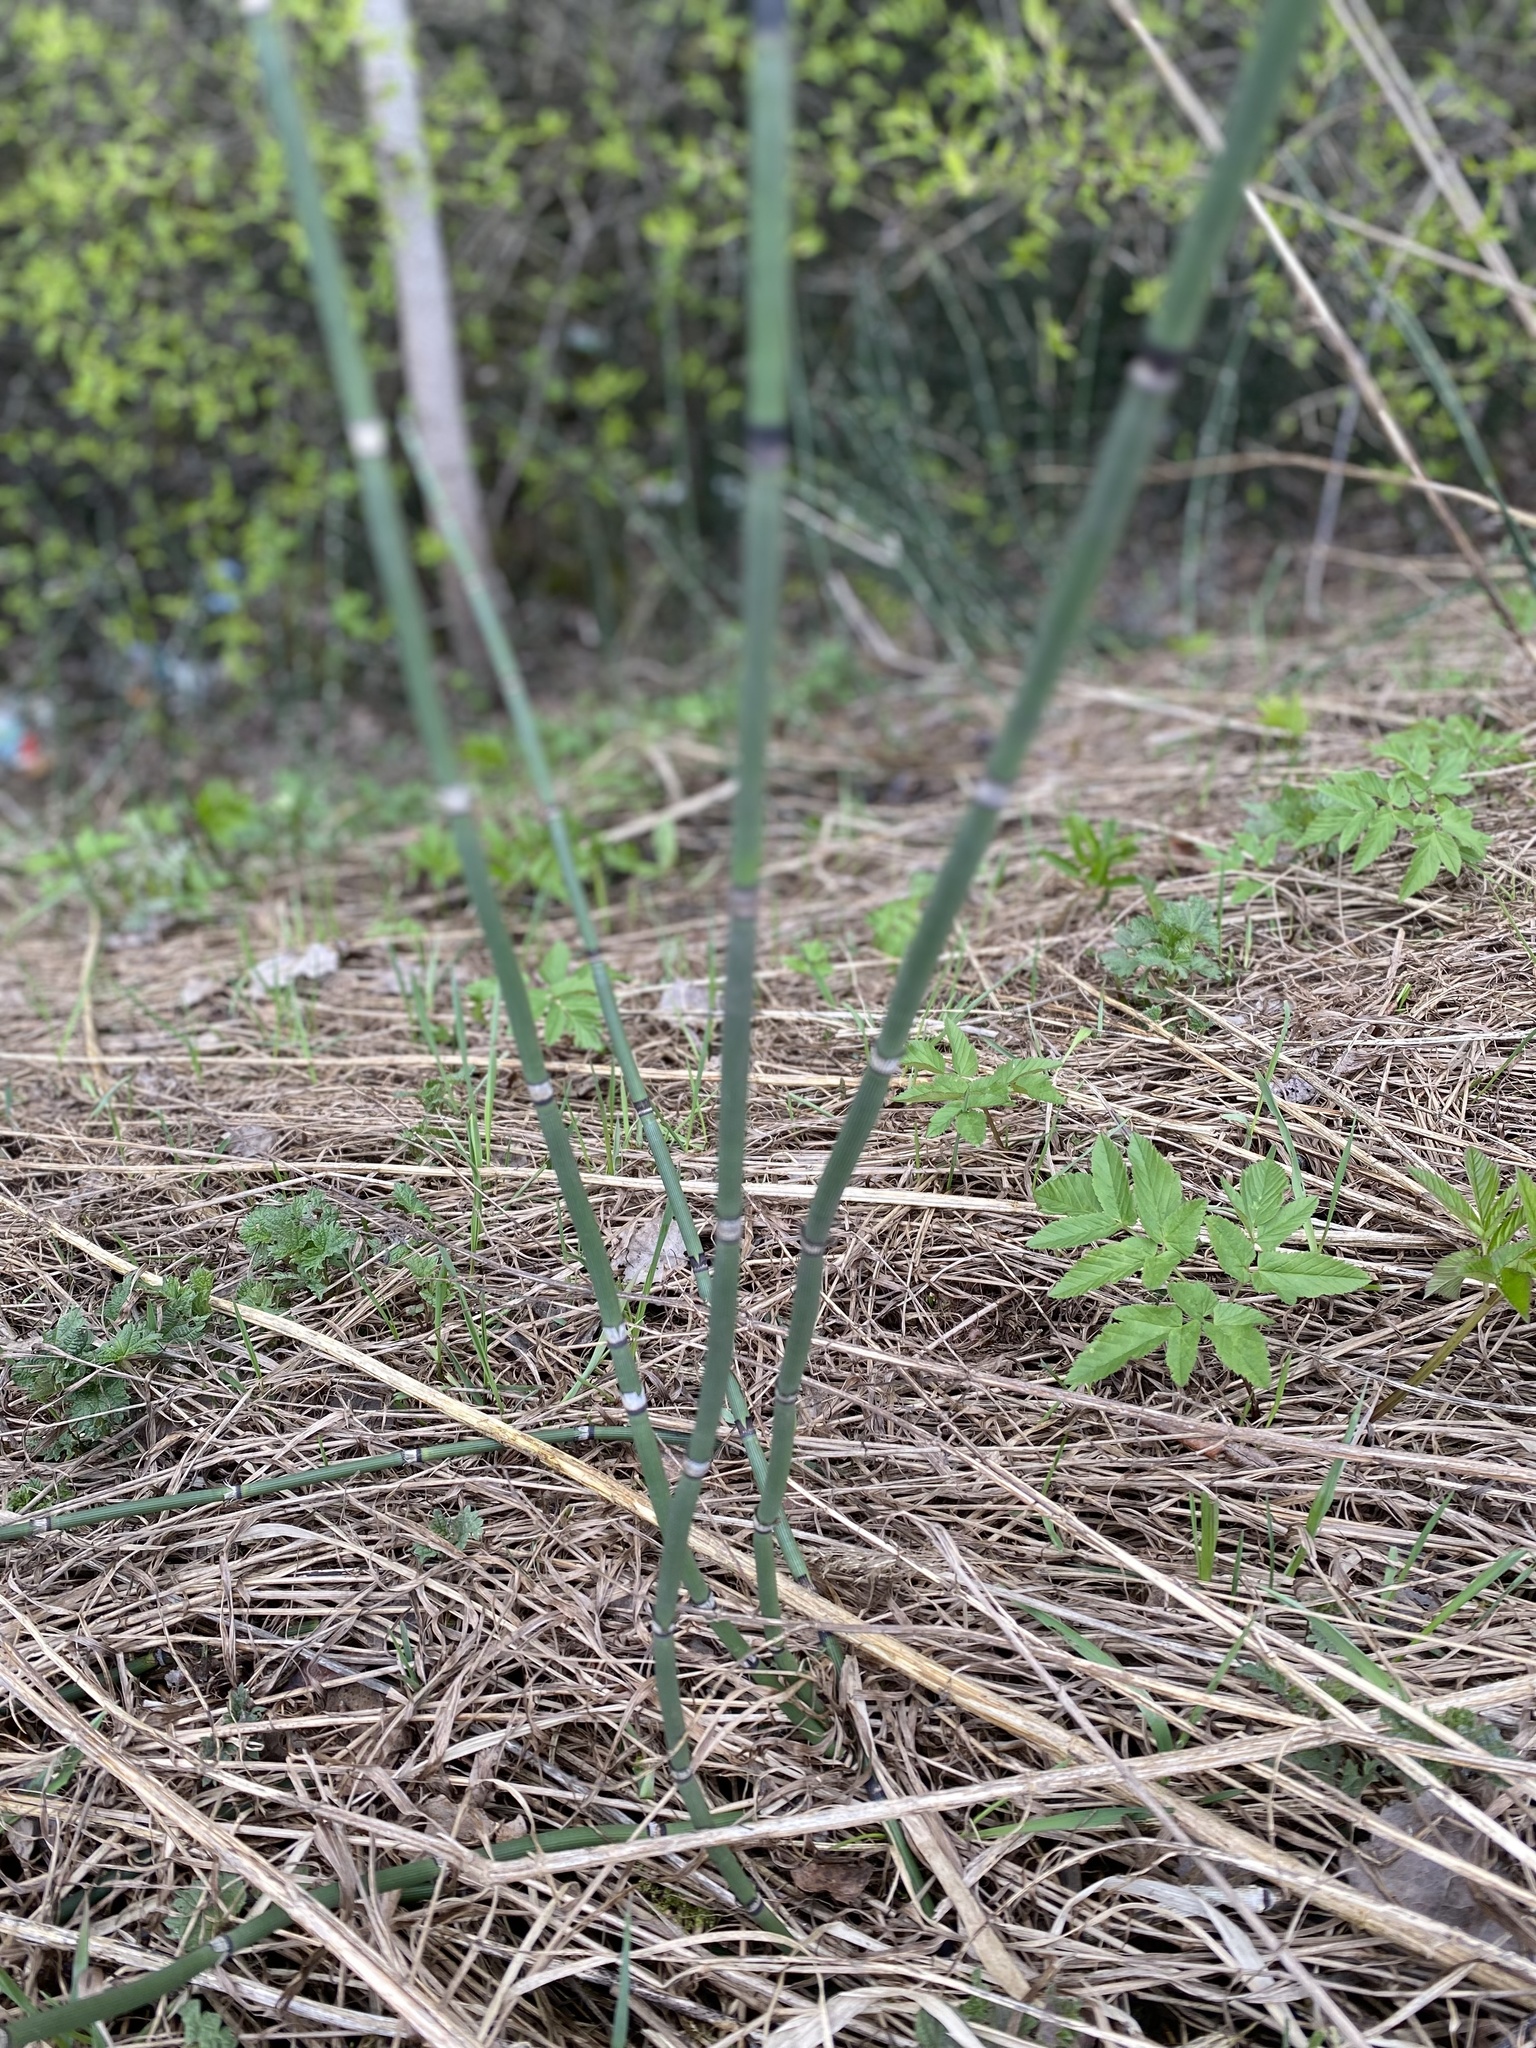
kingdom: Plantae
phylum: Tracheophyta
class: Polypodiopsida
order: Equisetales
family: Equisetaceae
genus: Equisetum
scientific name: Equisetum hyemale
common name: Rough horsetail
